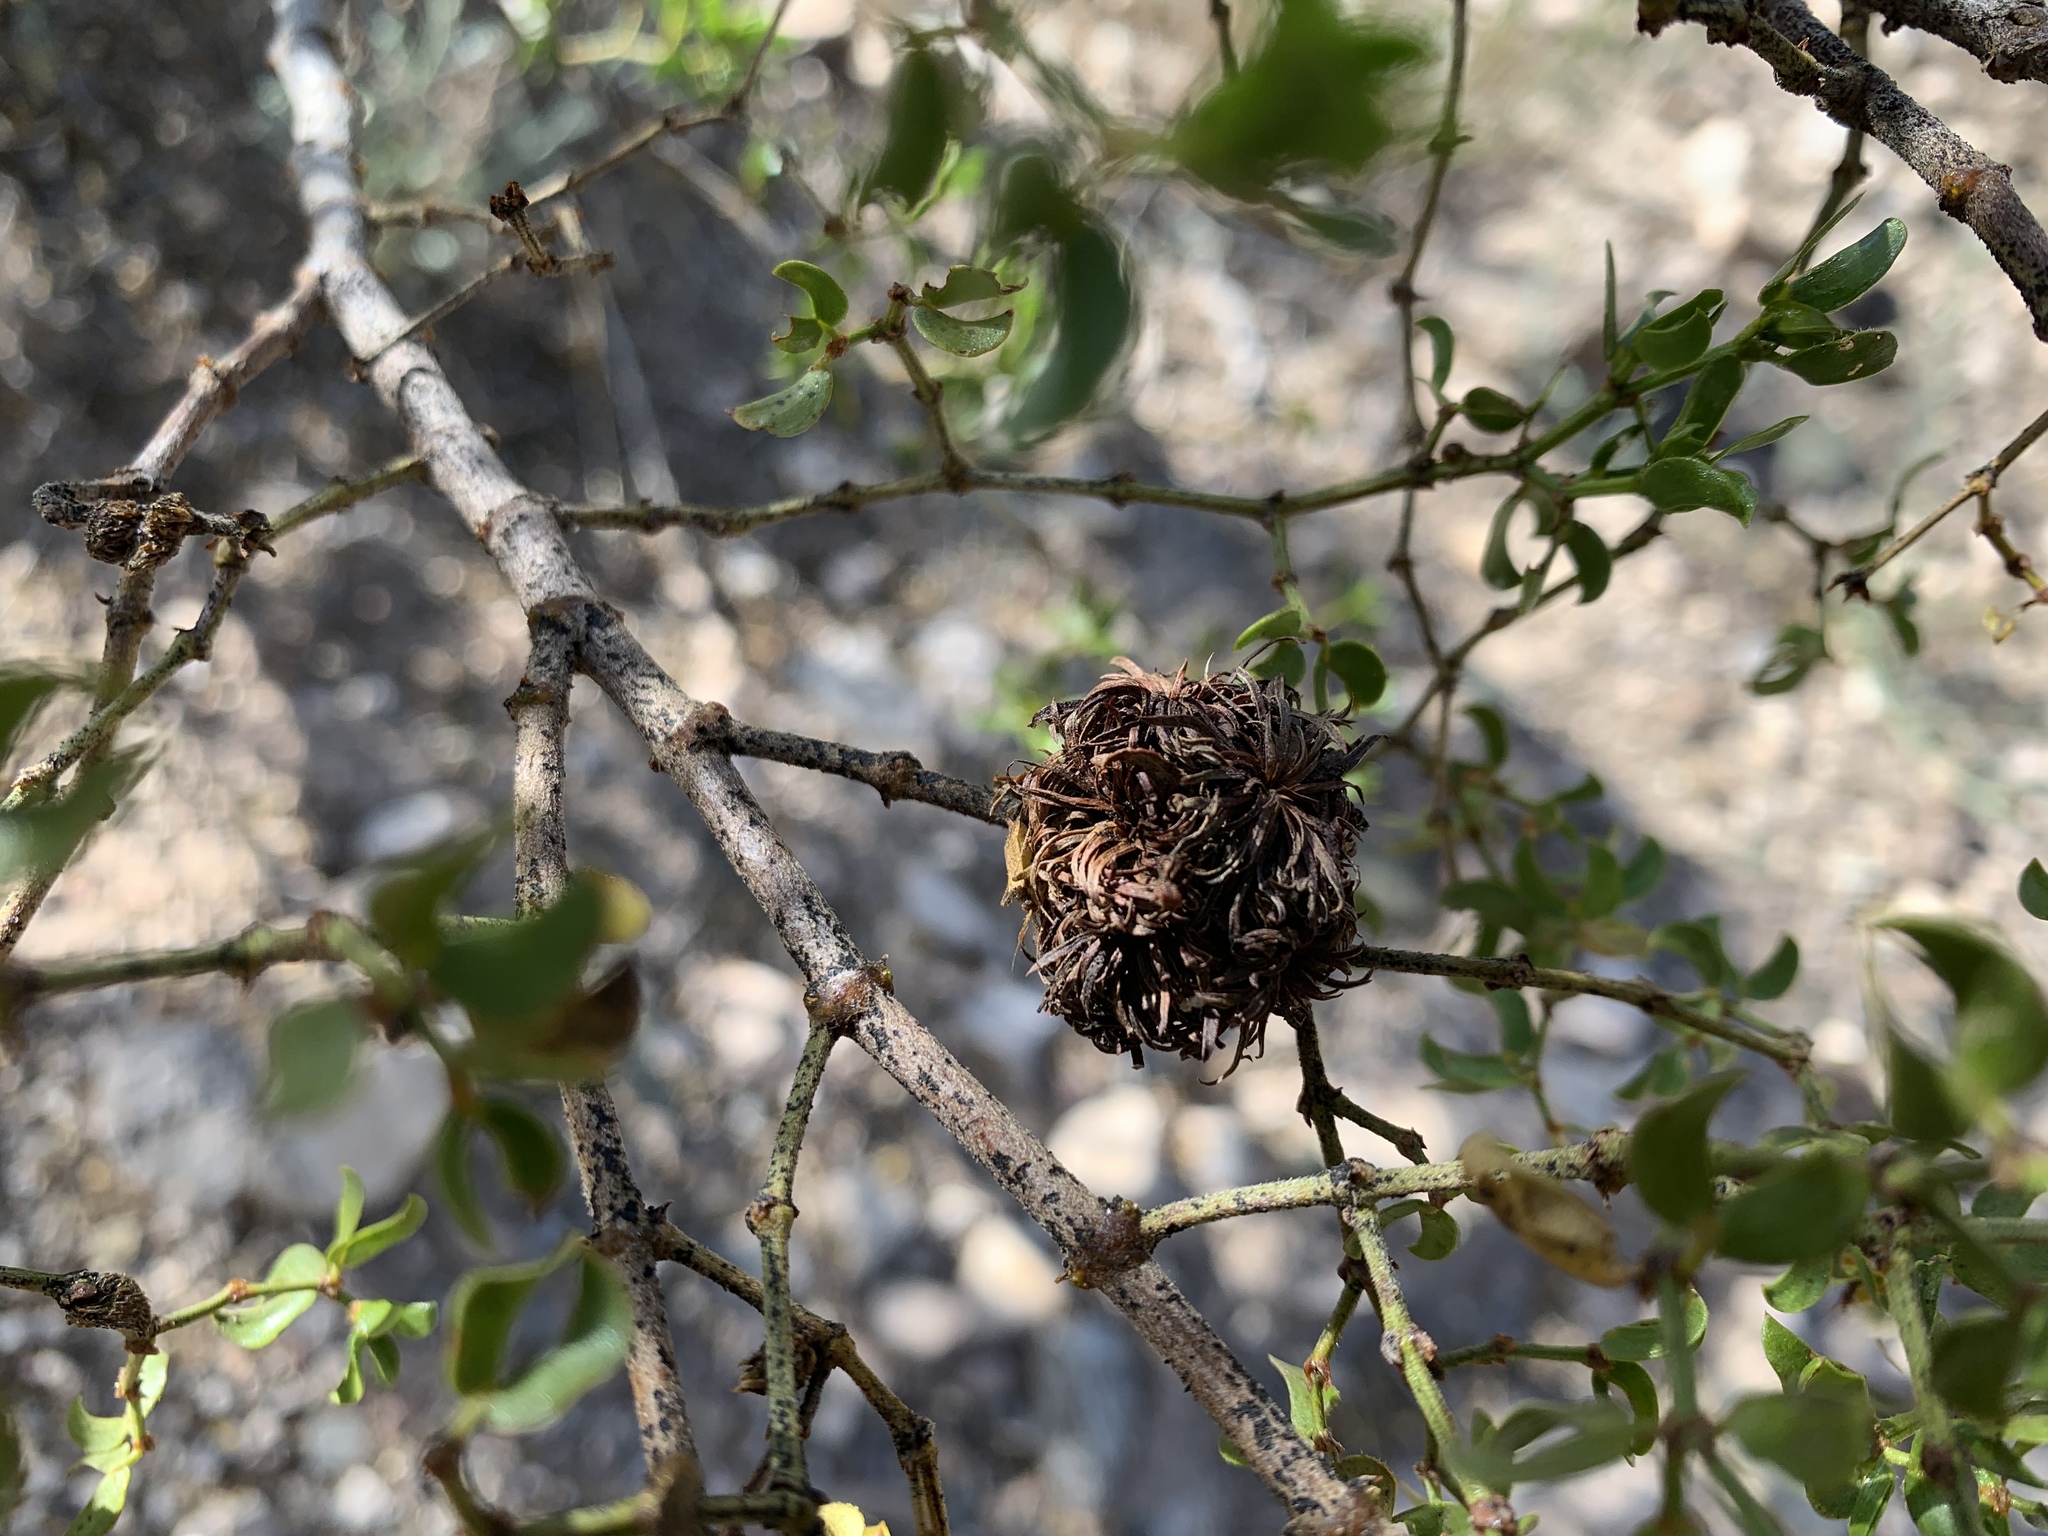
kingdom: Animalia
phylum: Arthropoda
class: Insecta
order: Diptera
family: Cecidomyiidae
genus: Asphondylia
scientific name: Asphondylia auripila
